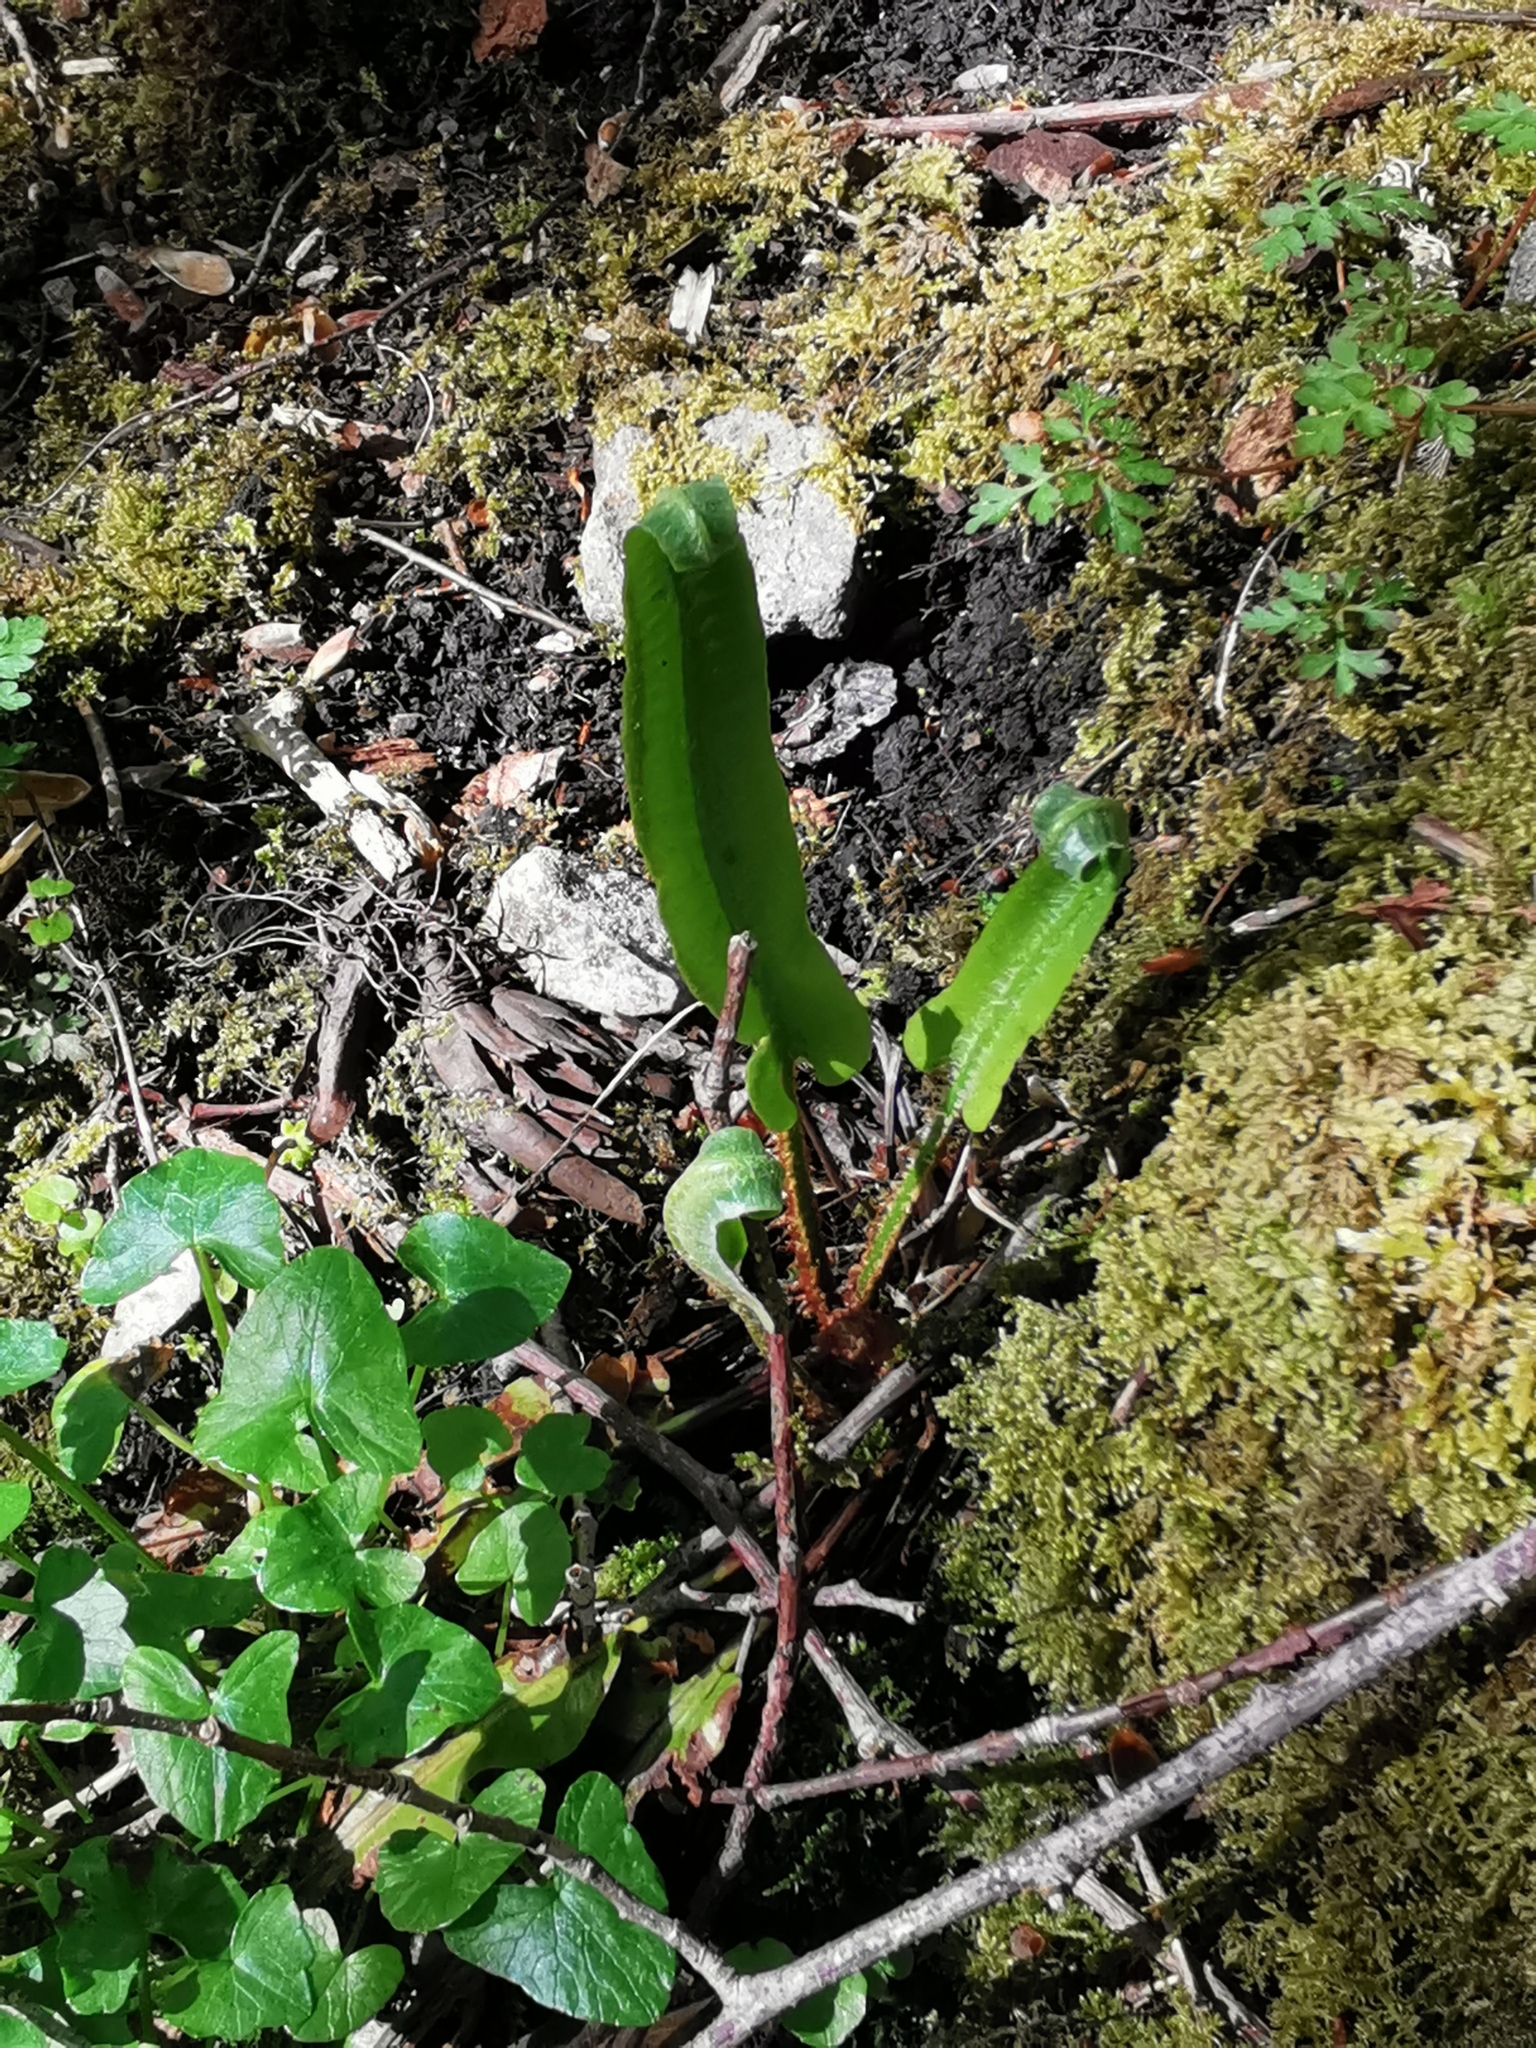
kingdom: Plantae
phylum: Tracheophyta
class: Polypodiopsida
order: Polypodiales
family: Aspleniaceae
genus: Asplenium
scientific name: Asplenium scolopendrium
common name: Hart's-tongue fern
